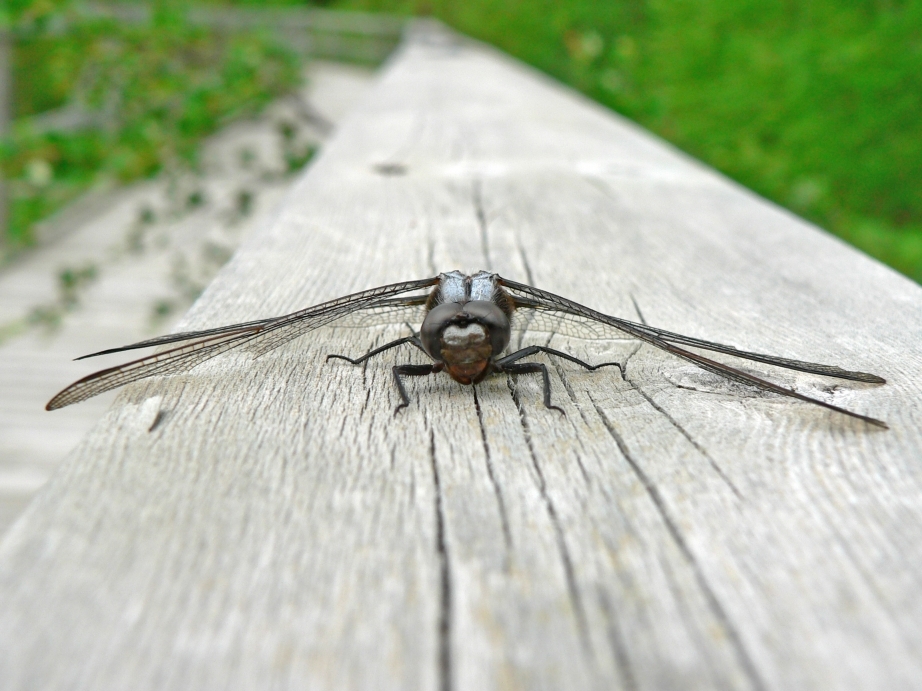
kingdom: Animalia
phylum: Arthropoda
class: Insecta
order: Odonata
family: Libellulidae
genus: Ladona
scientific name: Ladona julia
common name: Chalk-fronted corporal
